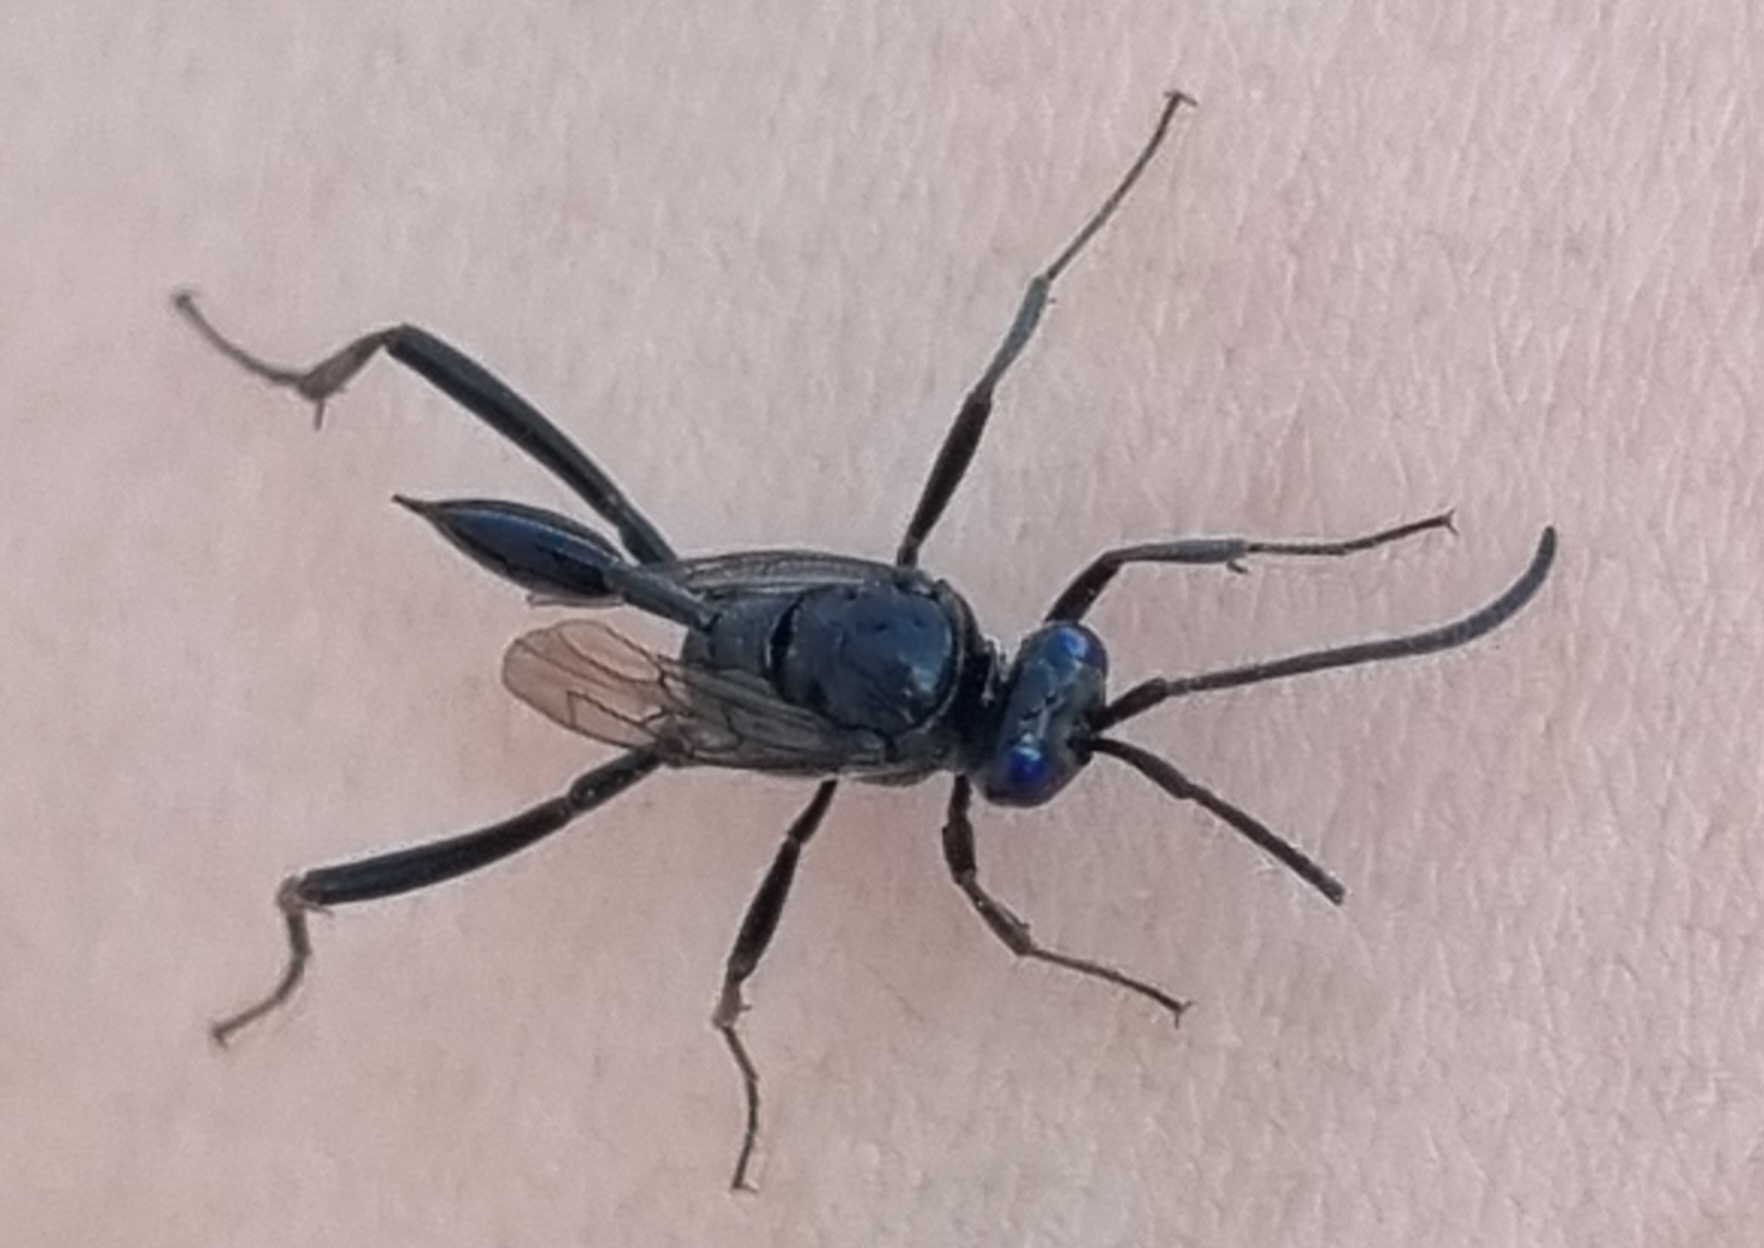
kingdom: Animalia
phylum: Arthropoda
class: Insecta
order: Hymenoptera
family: Evaniidae
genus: Evania
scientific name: Evania appendigaster
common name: Ensign wasp
